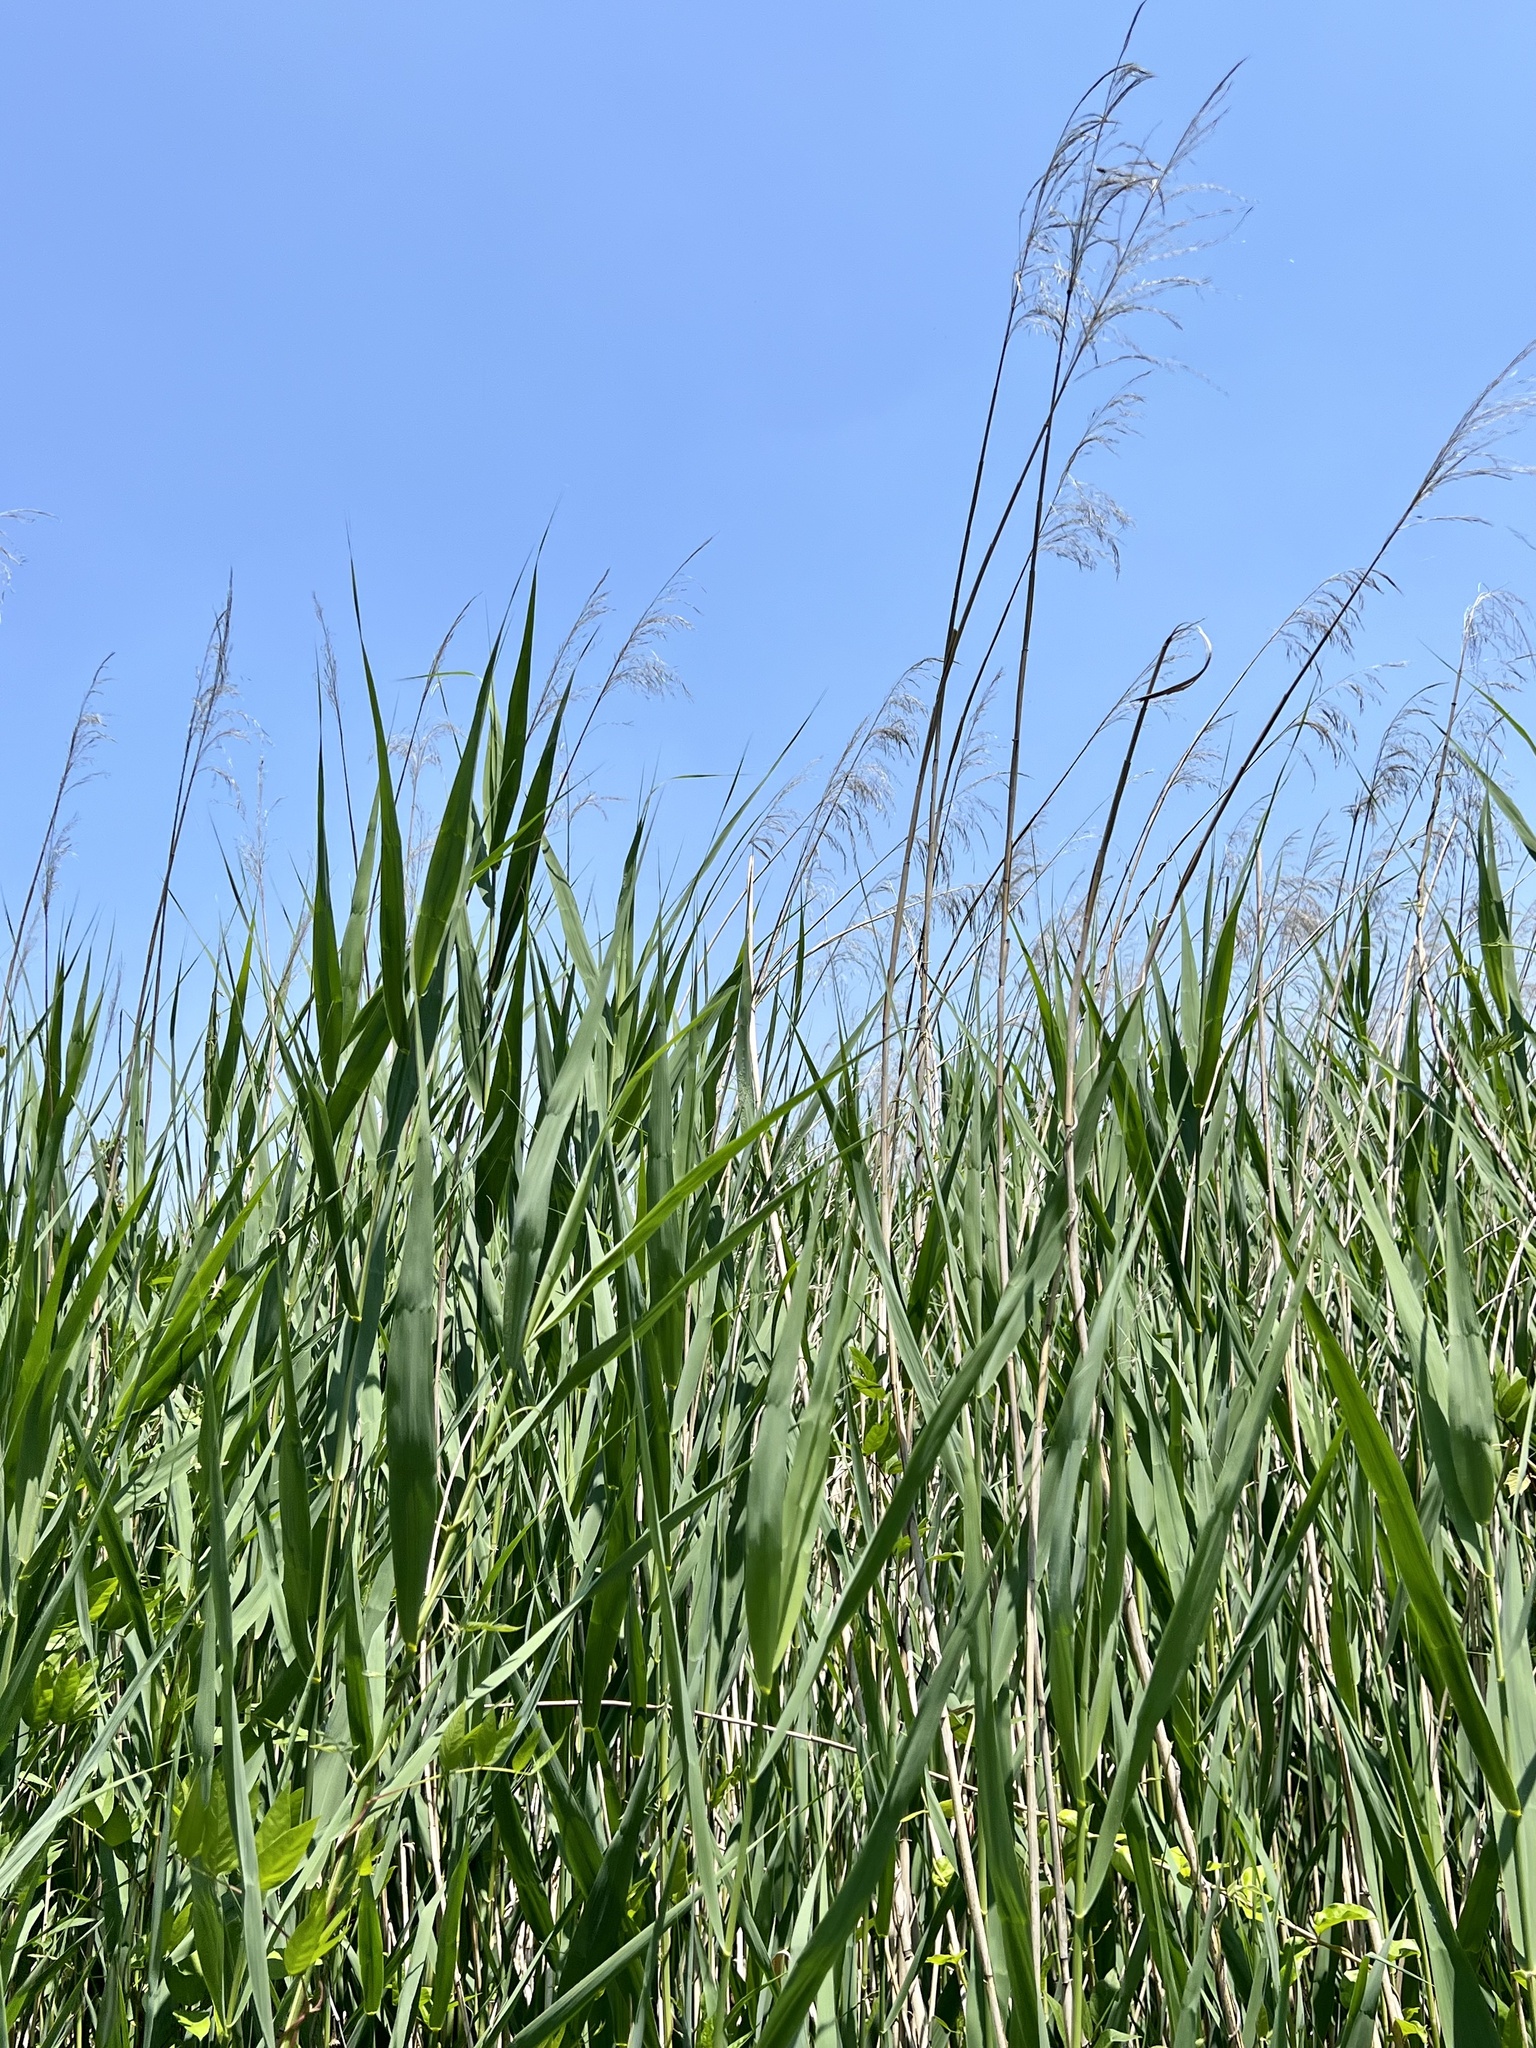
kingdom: Plantae
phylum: Tracheophyta
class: Liliopsida
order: Poales
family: Poaceae
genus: Phragmites
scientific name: Phragmites australis
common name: Common reed
